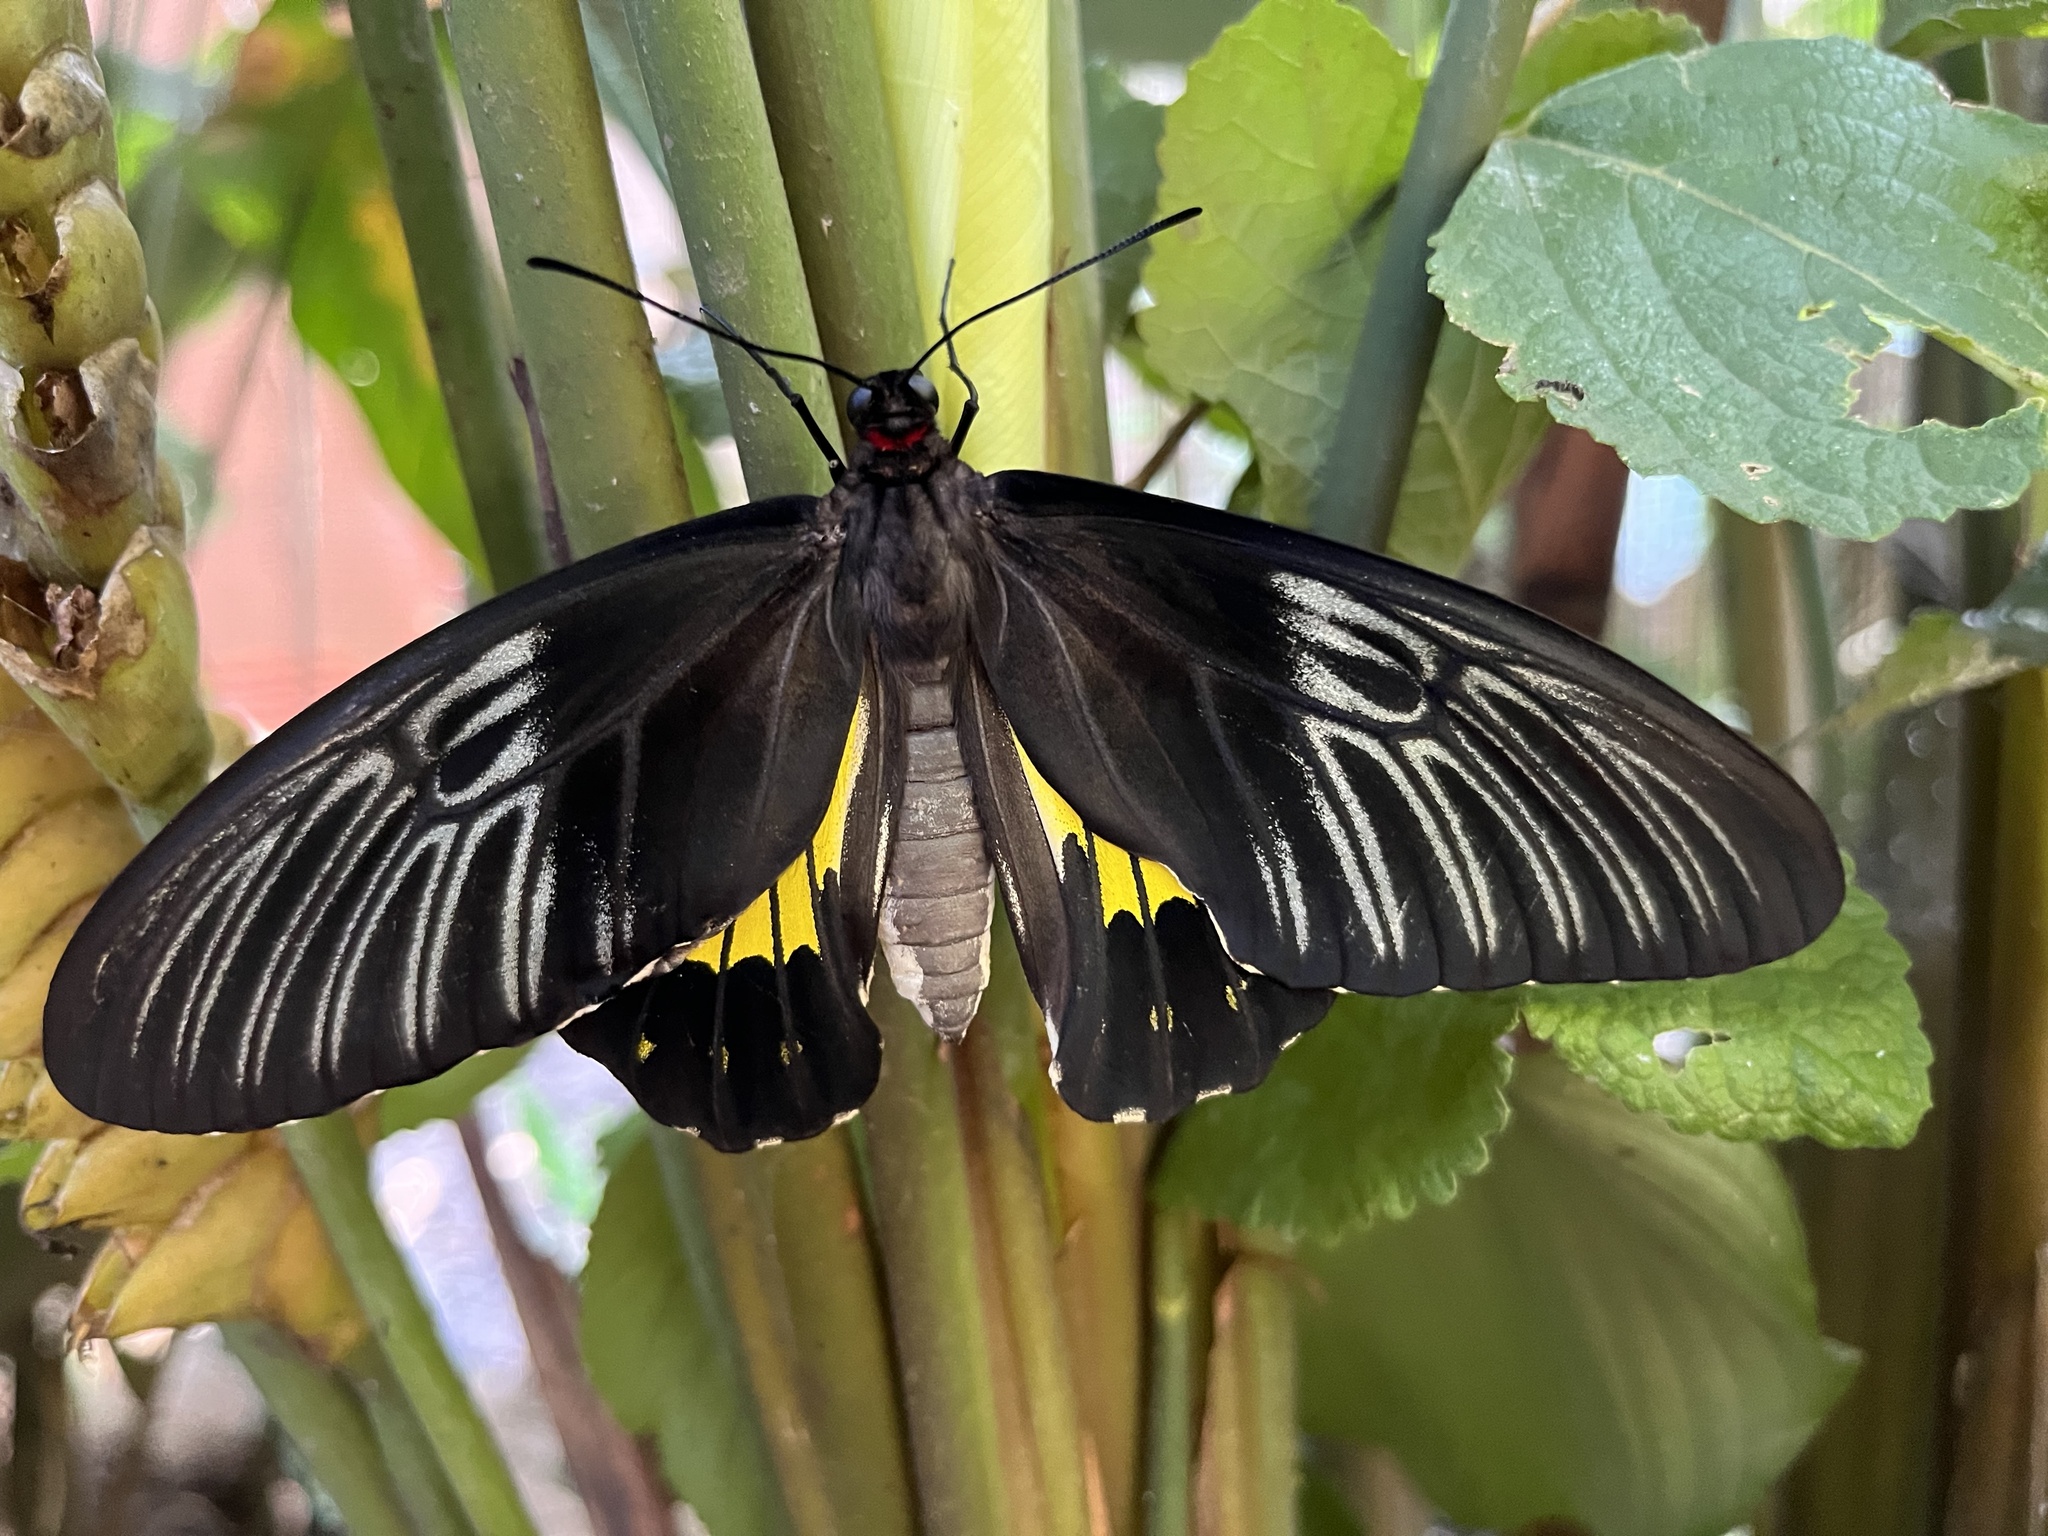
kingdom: Animalia
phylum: Arthropoda
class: Insecta
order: Lepidoptera
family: Papilionidae
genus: Troides
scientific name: Troides rhadamantus
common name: Golden birdwing
